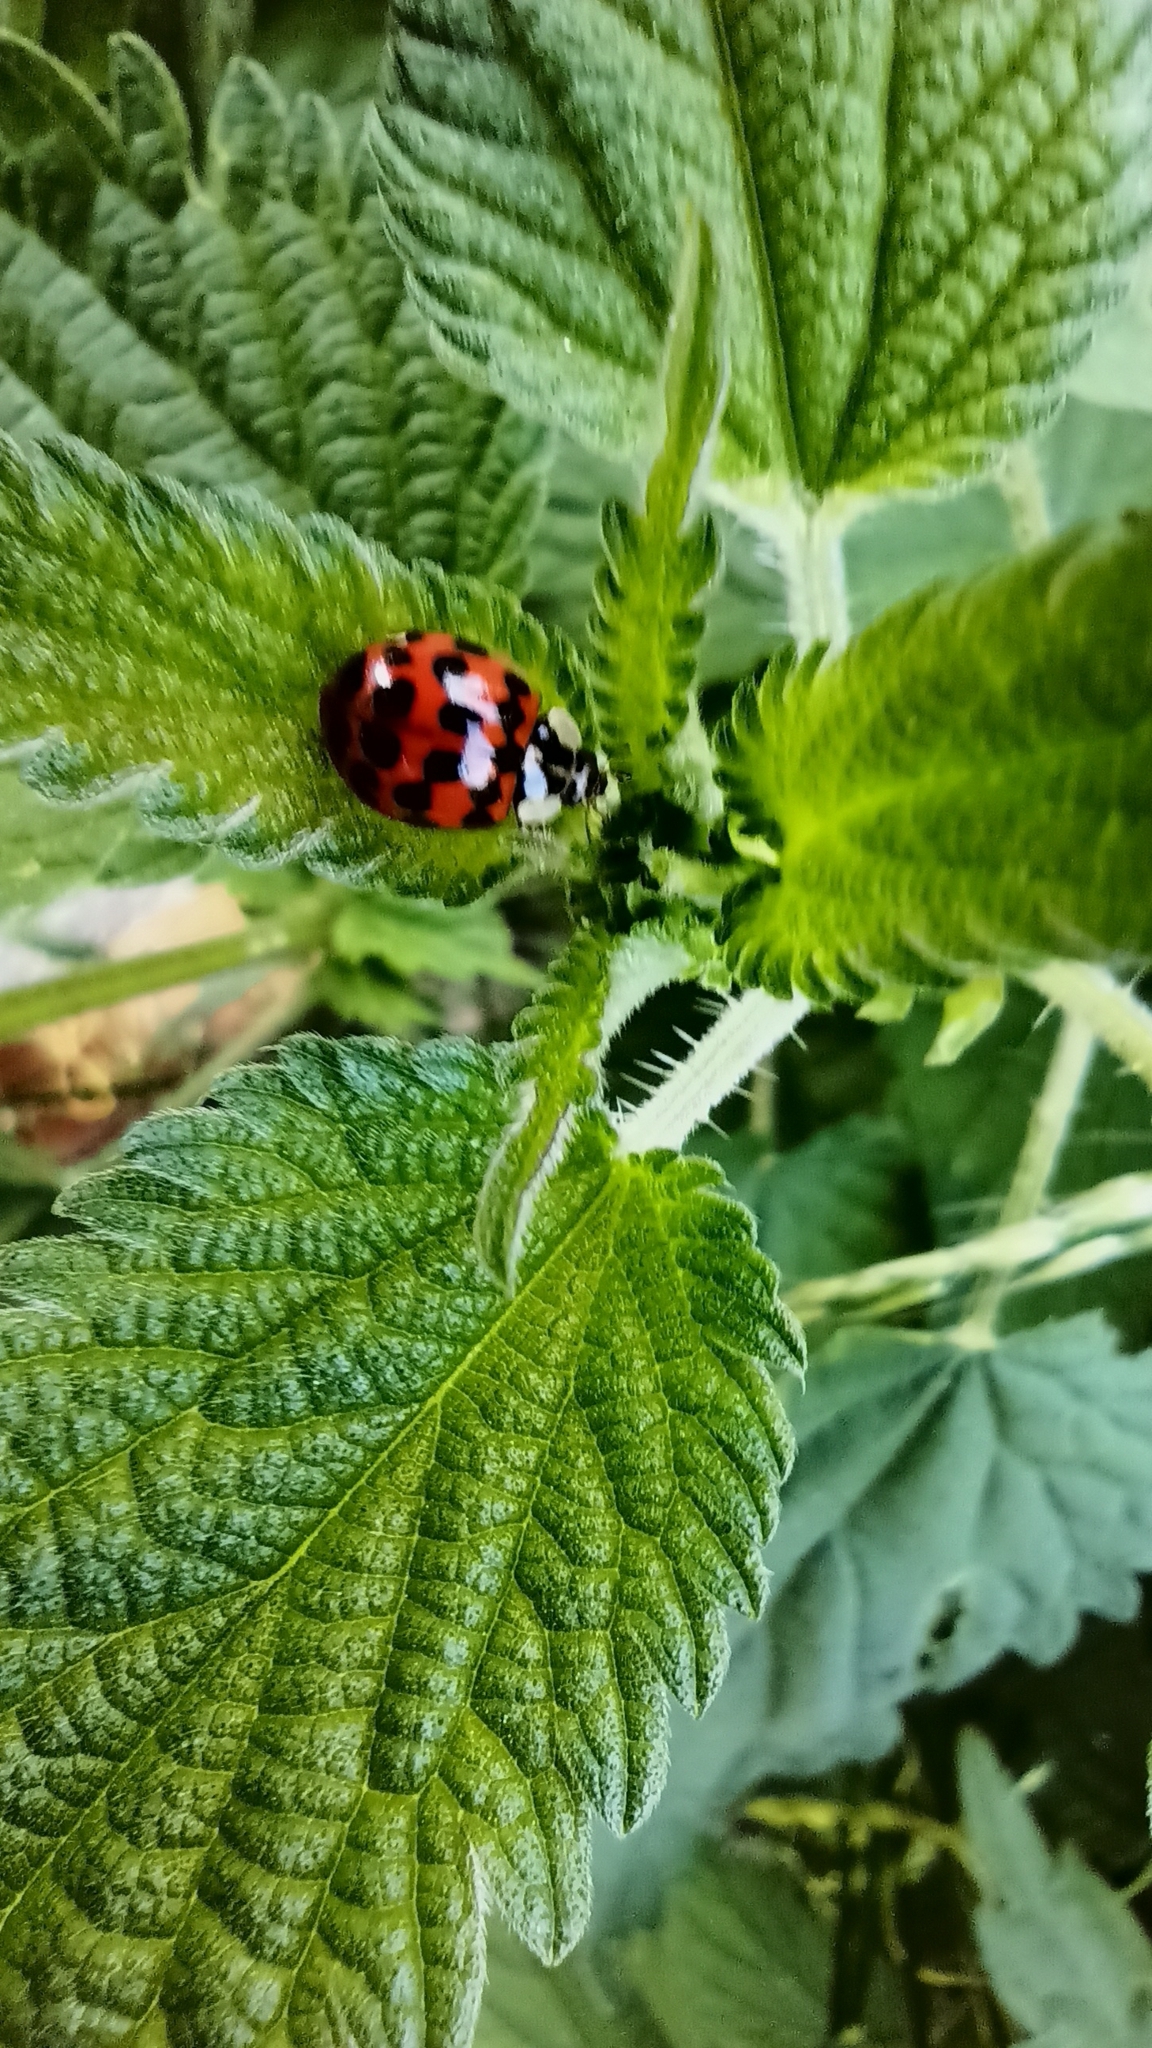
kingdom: Animalia
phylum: Arthropoda
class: Insecta
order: Coleoptera
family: Coccinellidae
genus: Harmonia
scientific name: Harmonia axyridis
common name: Harlequin ladybird
